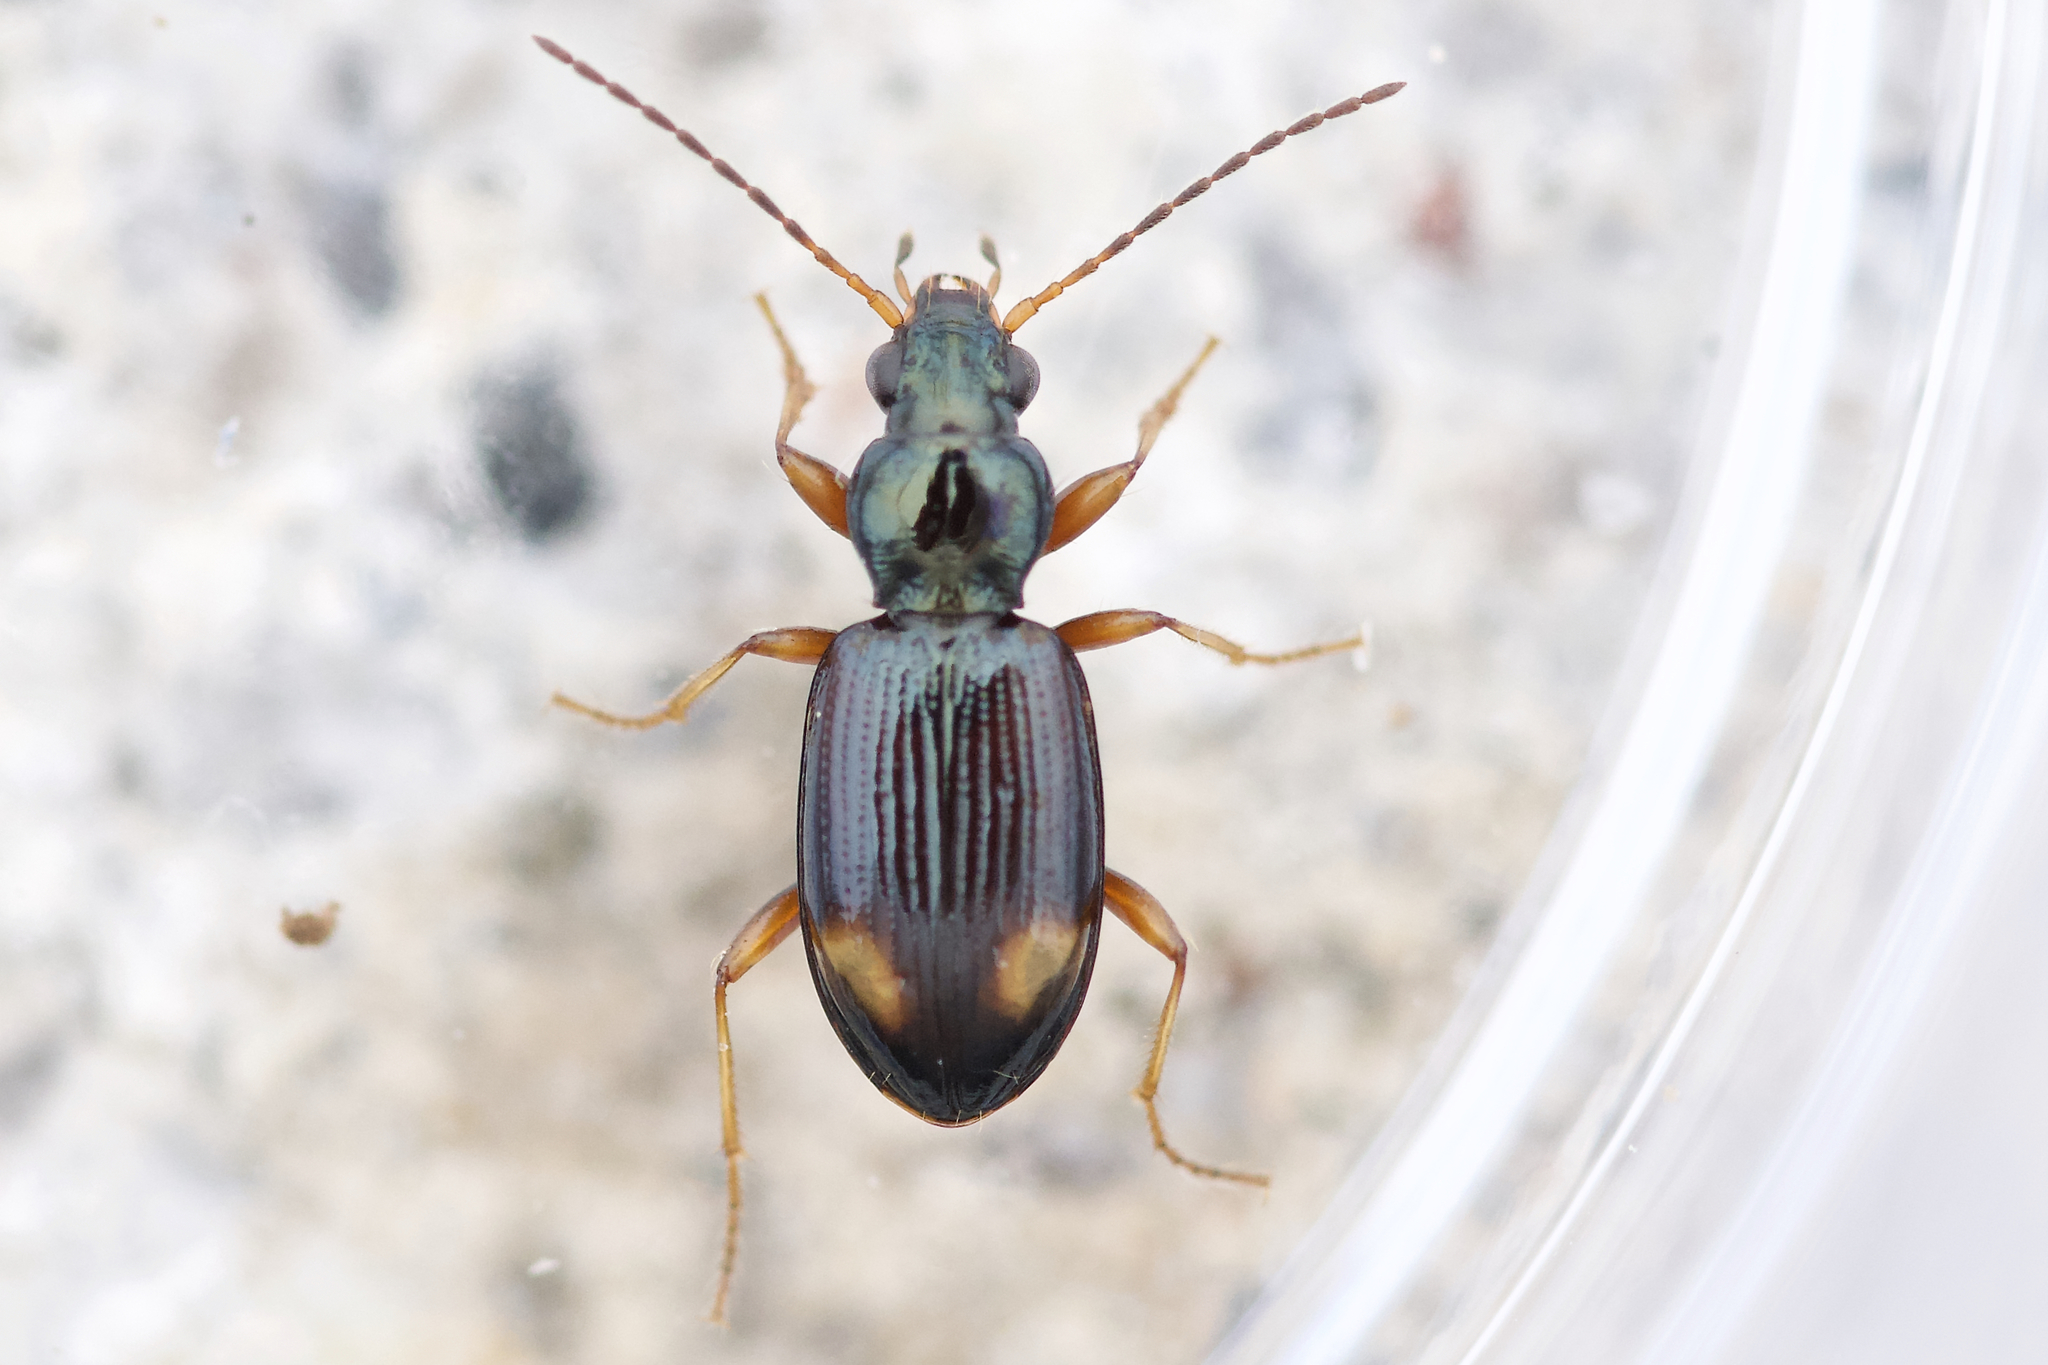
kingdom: Animalia
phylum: Arthropoda
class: Insecta
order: Coleoptera
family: Carabidae
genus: Bembidion
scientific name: Bembidion scopulinum
